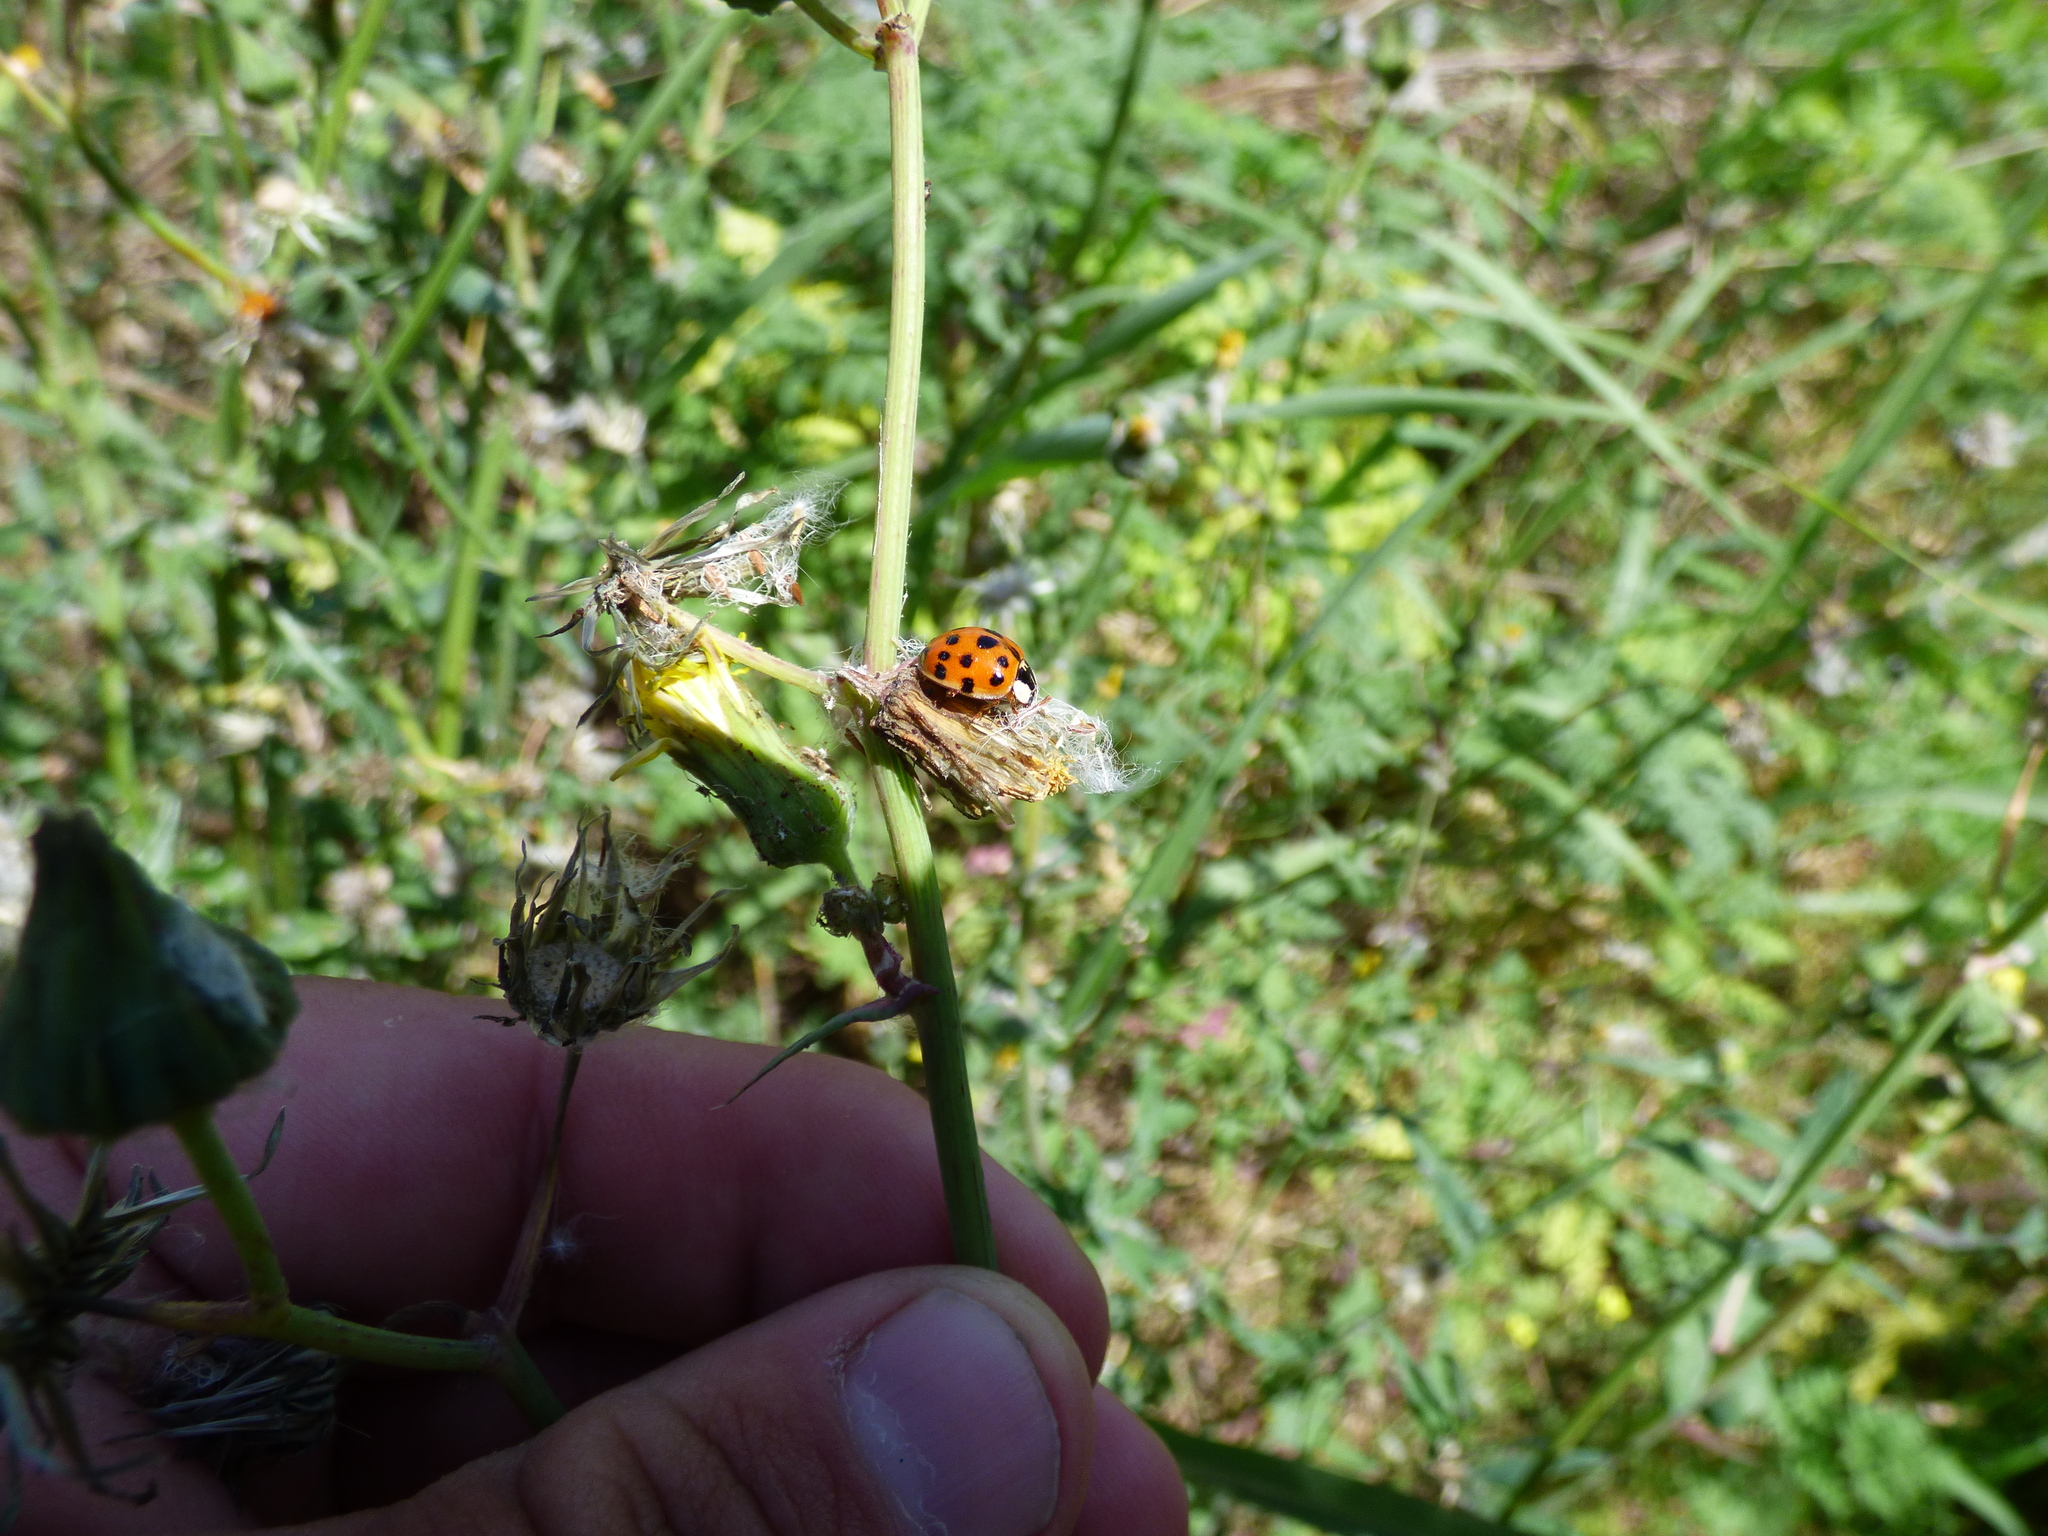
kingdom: Animalia
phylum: Arthropoda
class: Insecta
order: Coleoptera
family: Coccinellidae
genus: Harmonia
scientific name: Harmonia axyridis
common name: Harlequin ladybird
